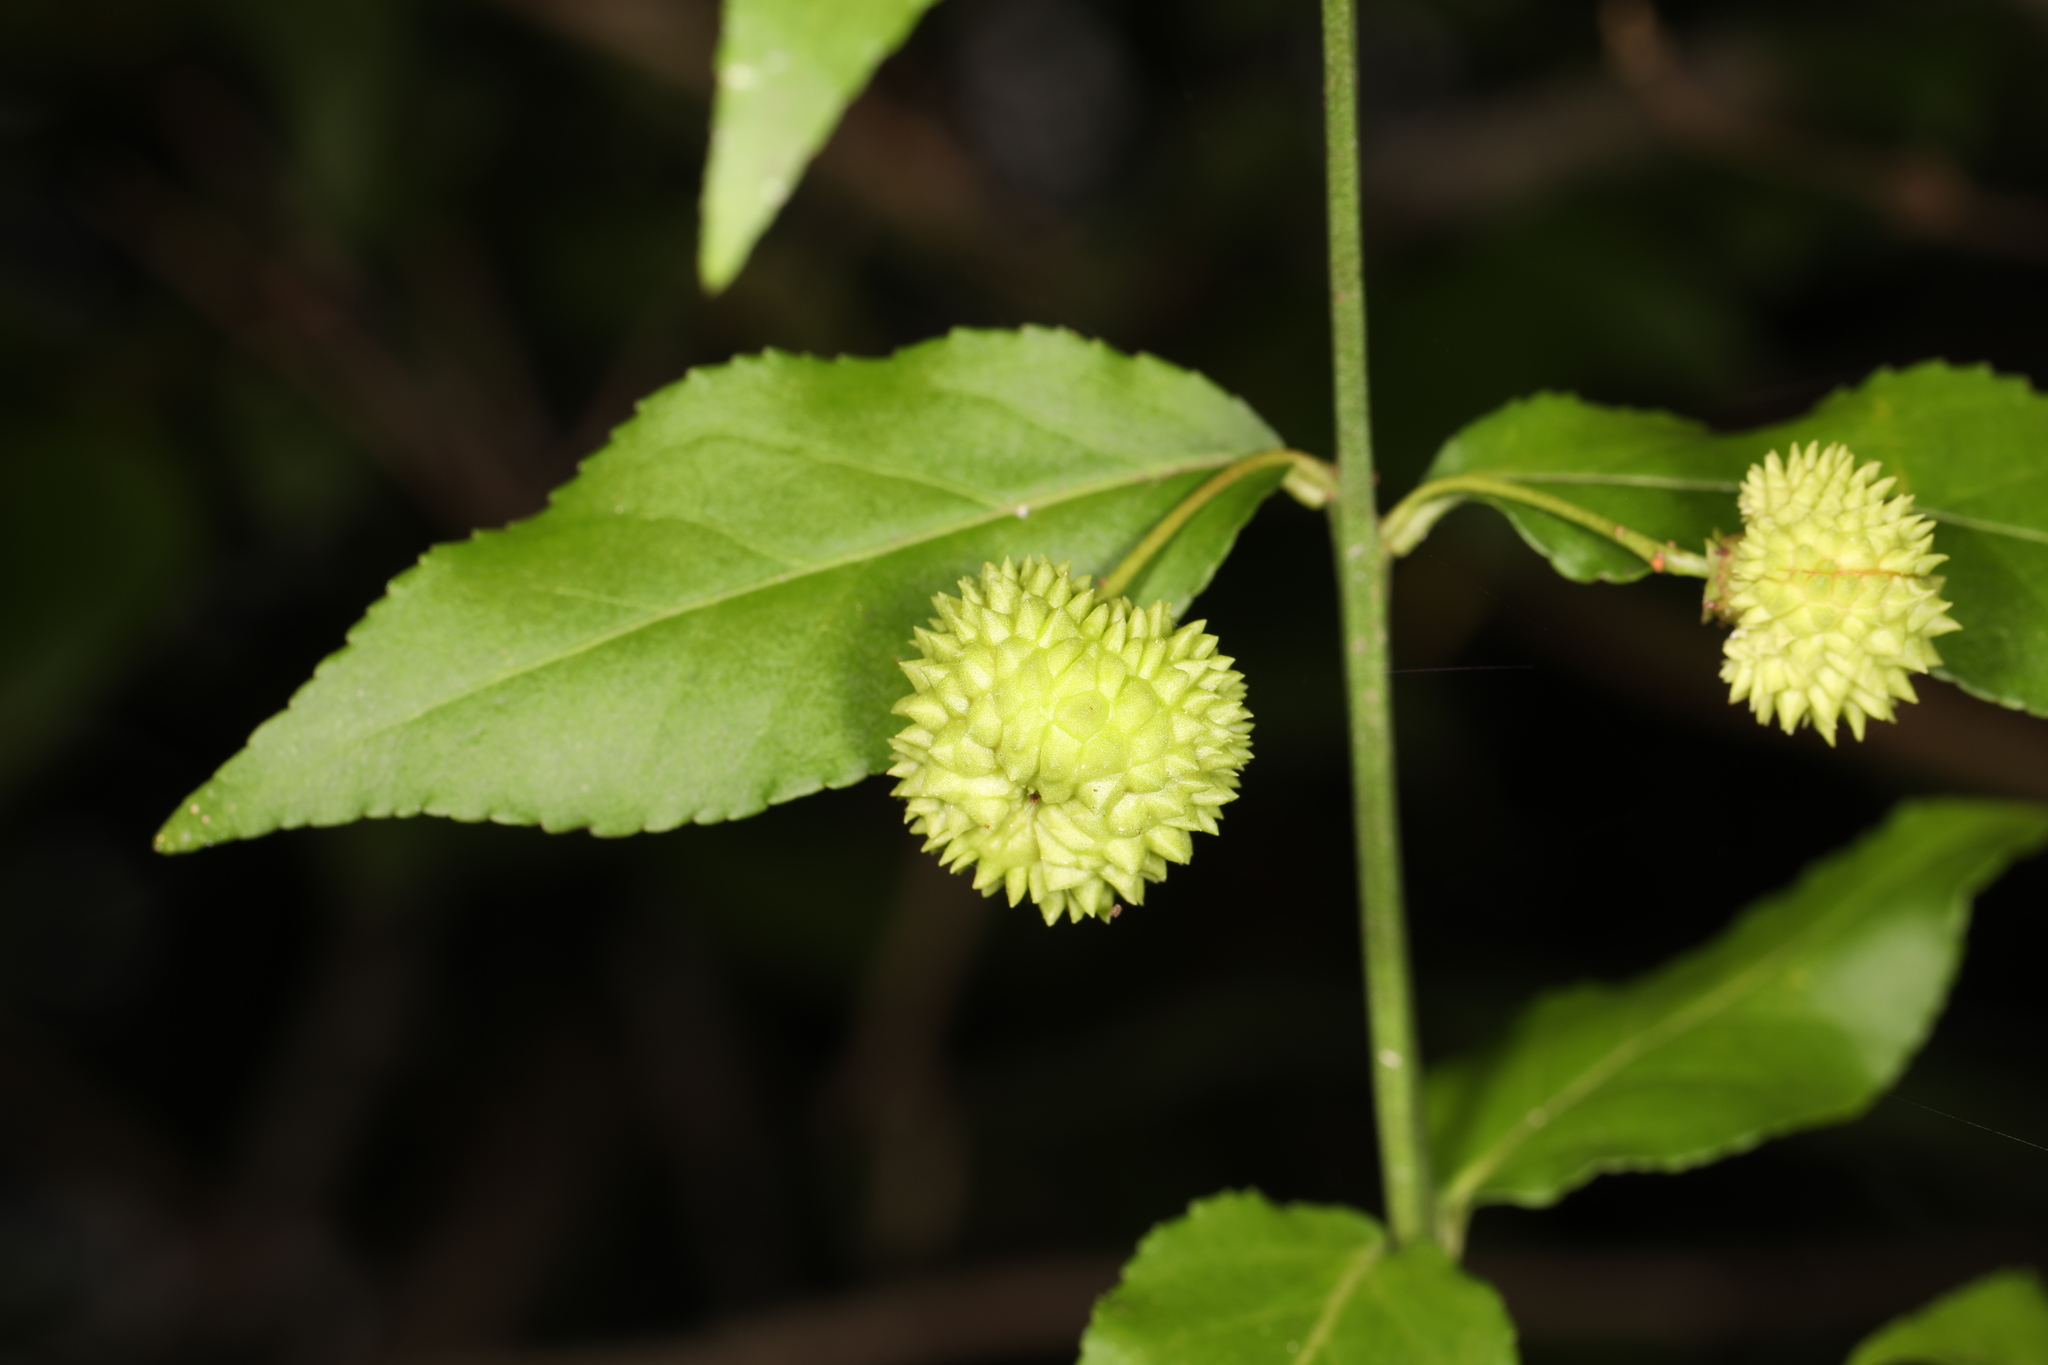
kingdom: Plantae
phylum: Tracheophyta
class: Magnoliopsida
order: Celastrales
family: Celastraceae
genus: Euonymus
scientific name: Euonymus americanus
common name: Bursting-heart
